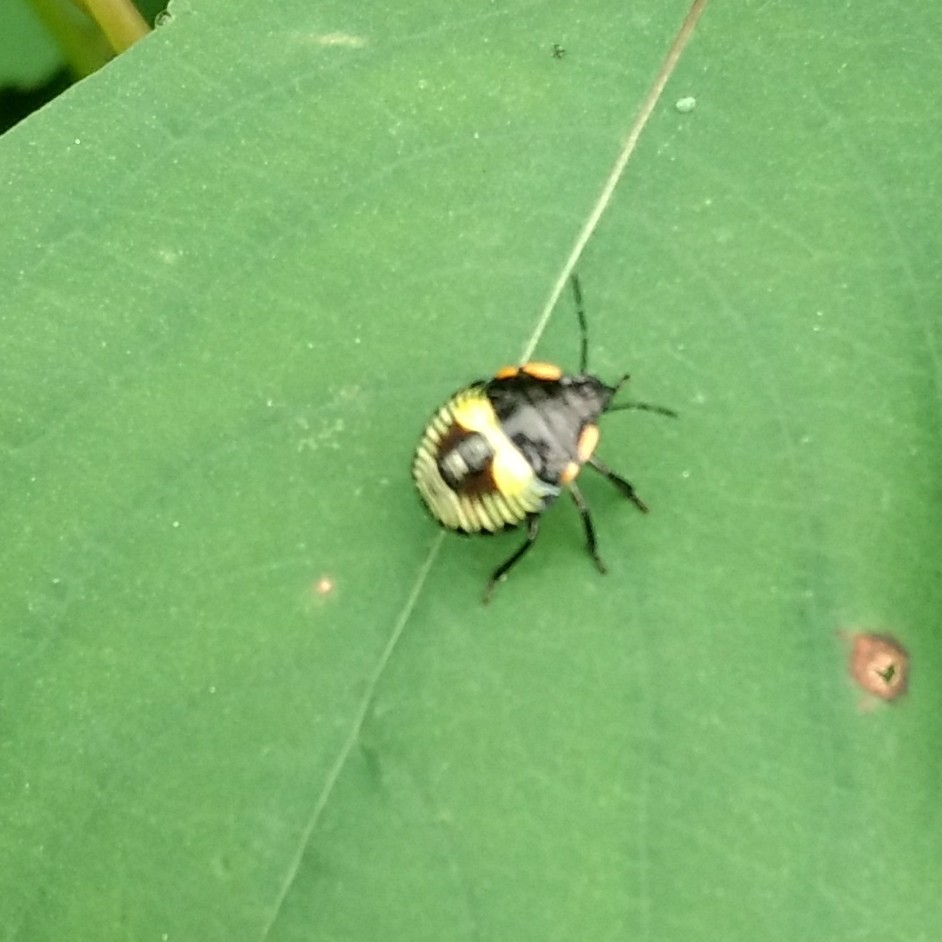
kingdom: Animalia
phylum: Arthropoda
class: Insecta
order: Hemiptera
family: Pentatomidae
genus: Chinavia
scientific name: Chinavia hilaris
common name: Green stink bug
